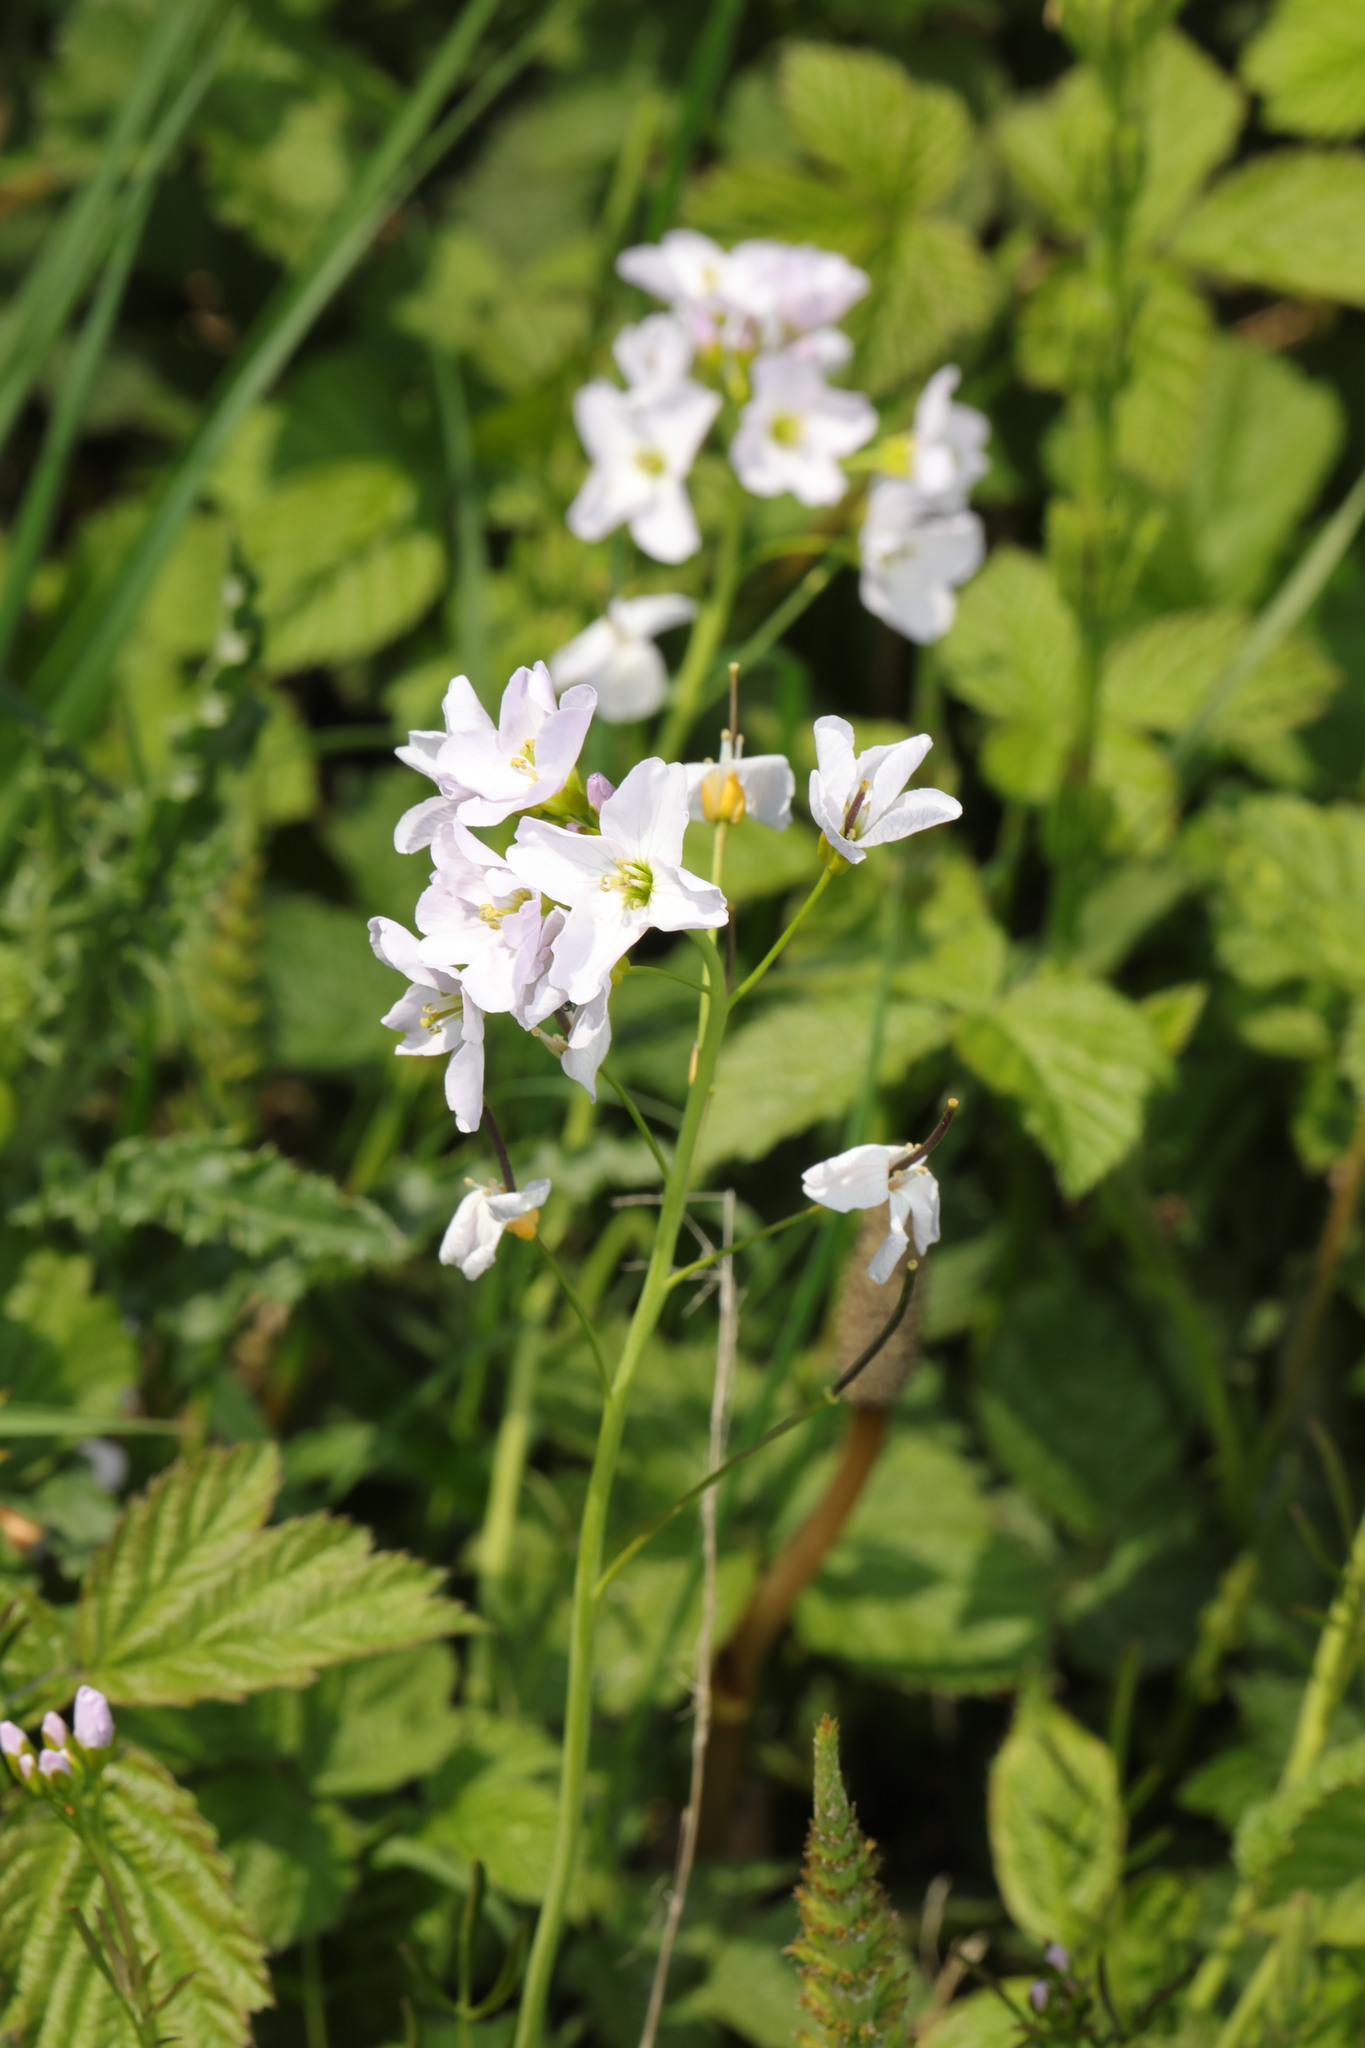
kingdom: Plantae
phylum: Tracheophyta
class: Magnoliopsida
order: Brassicales
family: Brassicaceae
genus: Cardamine
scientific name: Cardamine pratensis
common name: Cuckoo flower
